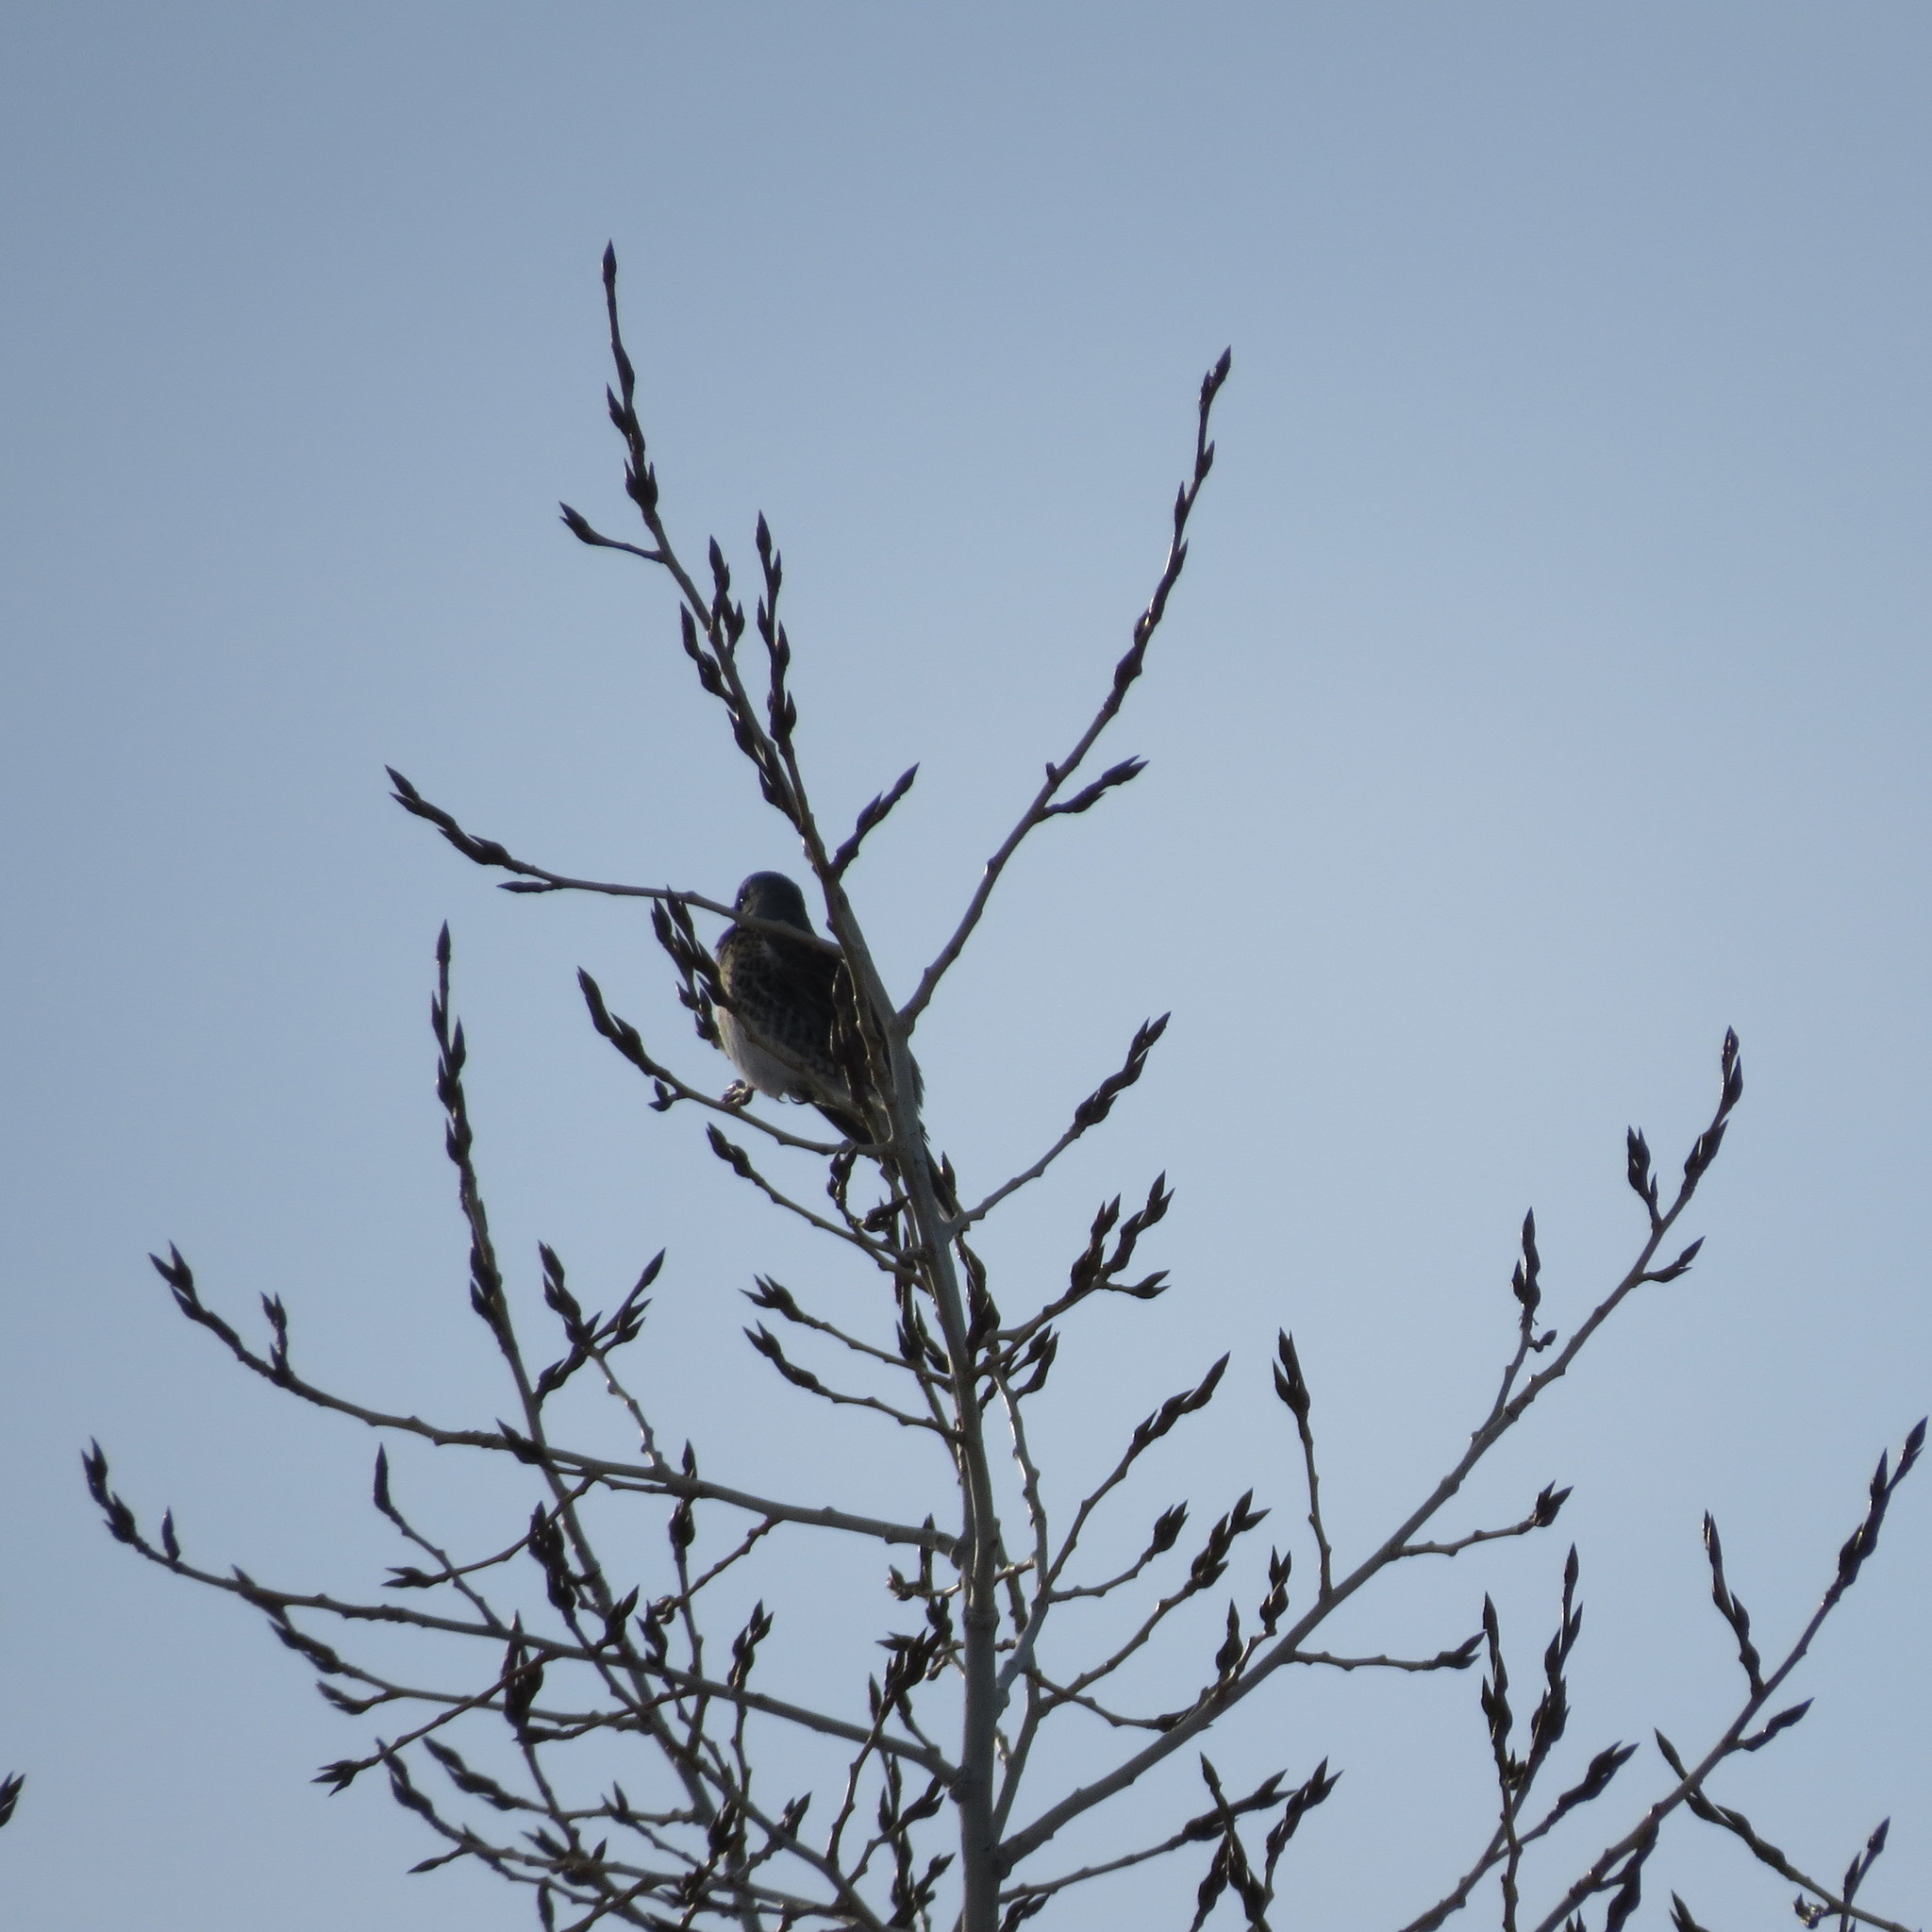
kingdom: Animalia
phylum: Chordata
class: Aves
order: Passeriformes
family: Turdidae
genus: Turdus
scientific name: Turdus pilaris
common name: Fieldfare
